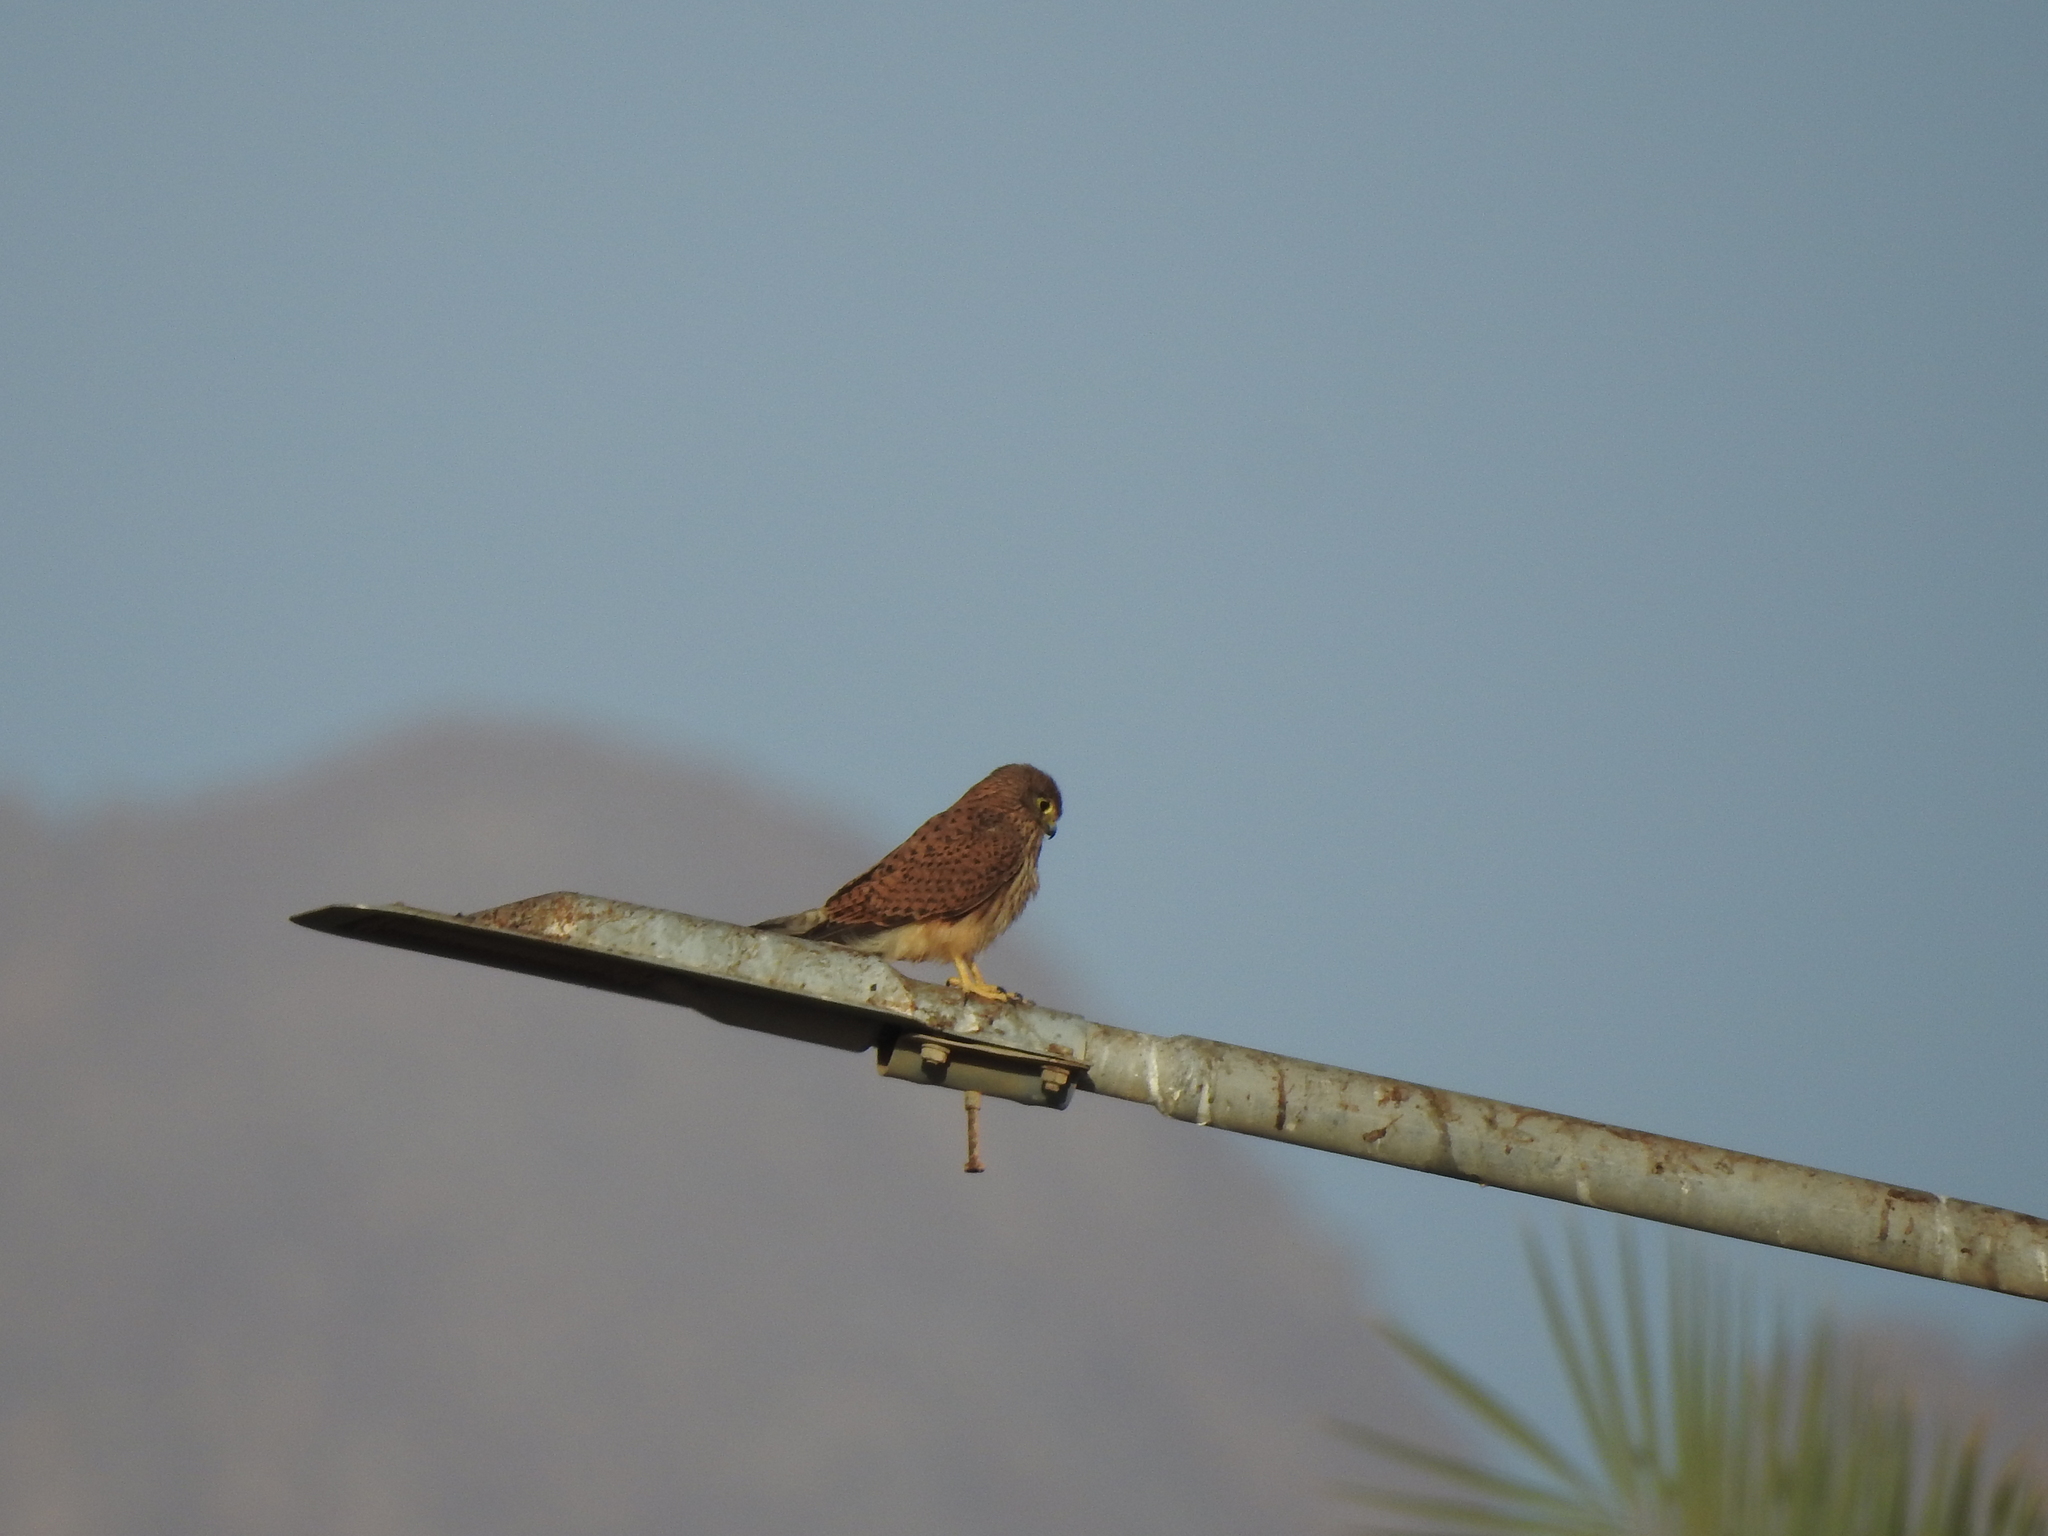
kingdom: Animalia
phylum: Chordata
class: Aves
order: Falconiformes
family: Falconidae
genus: Falco
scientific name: Falco tinnunculus
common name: Common kestrel
